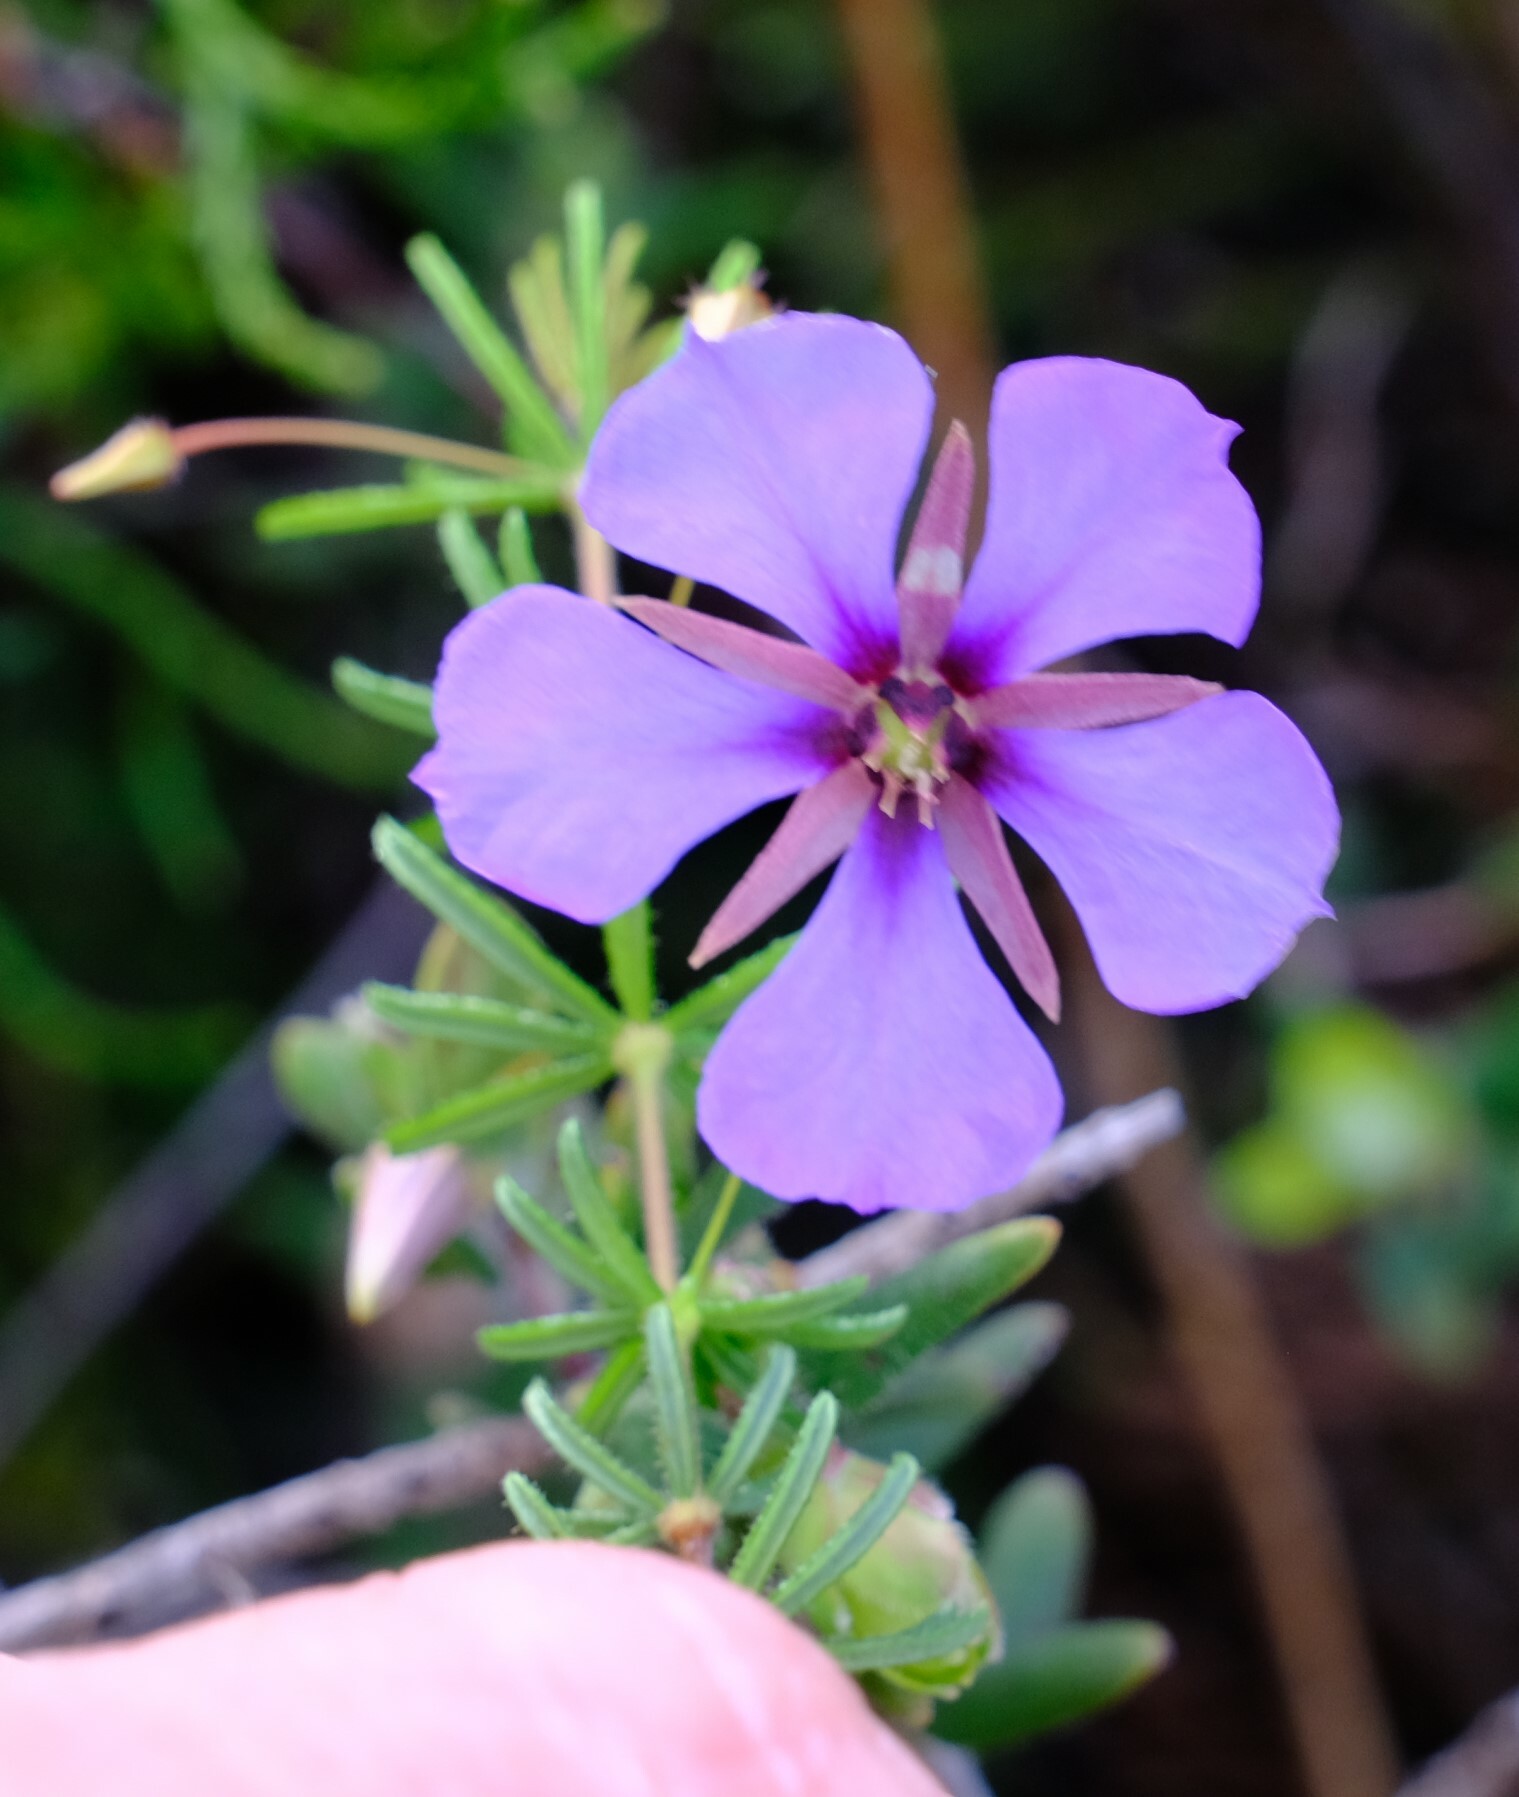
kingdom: Plantae
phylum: Tracheophyta
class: Magnoliopsida
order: Oxalidales
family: Elaeocarpaceae
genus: Platytheca
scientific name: Platytheca galioides
